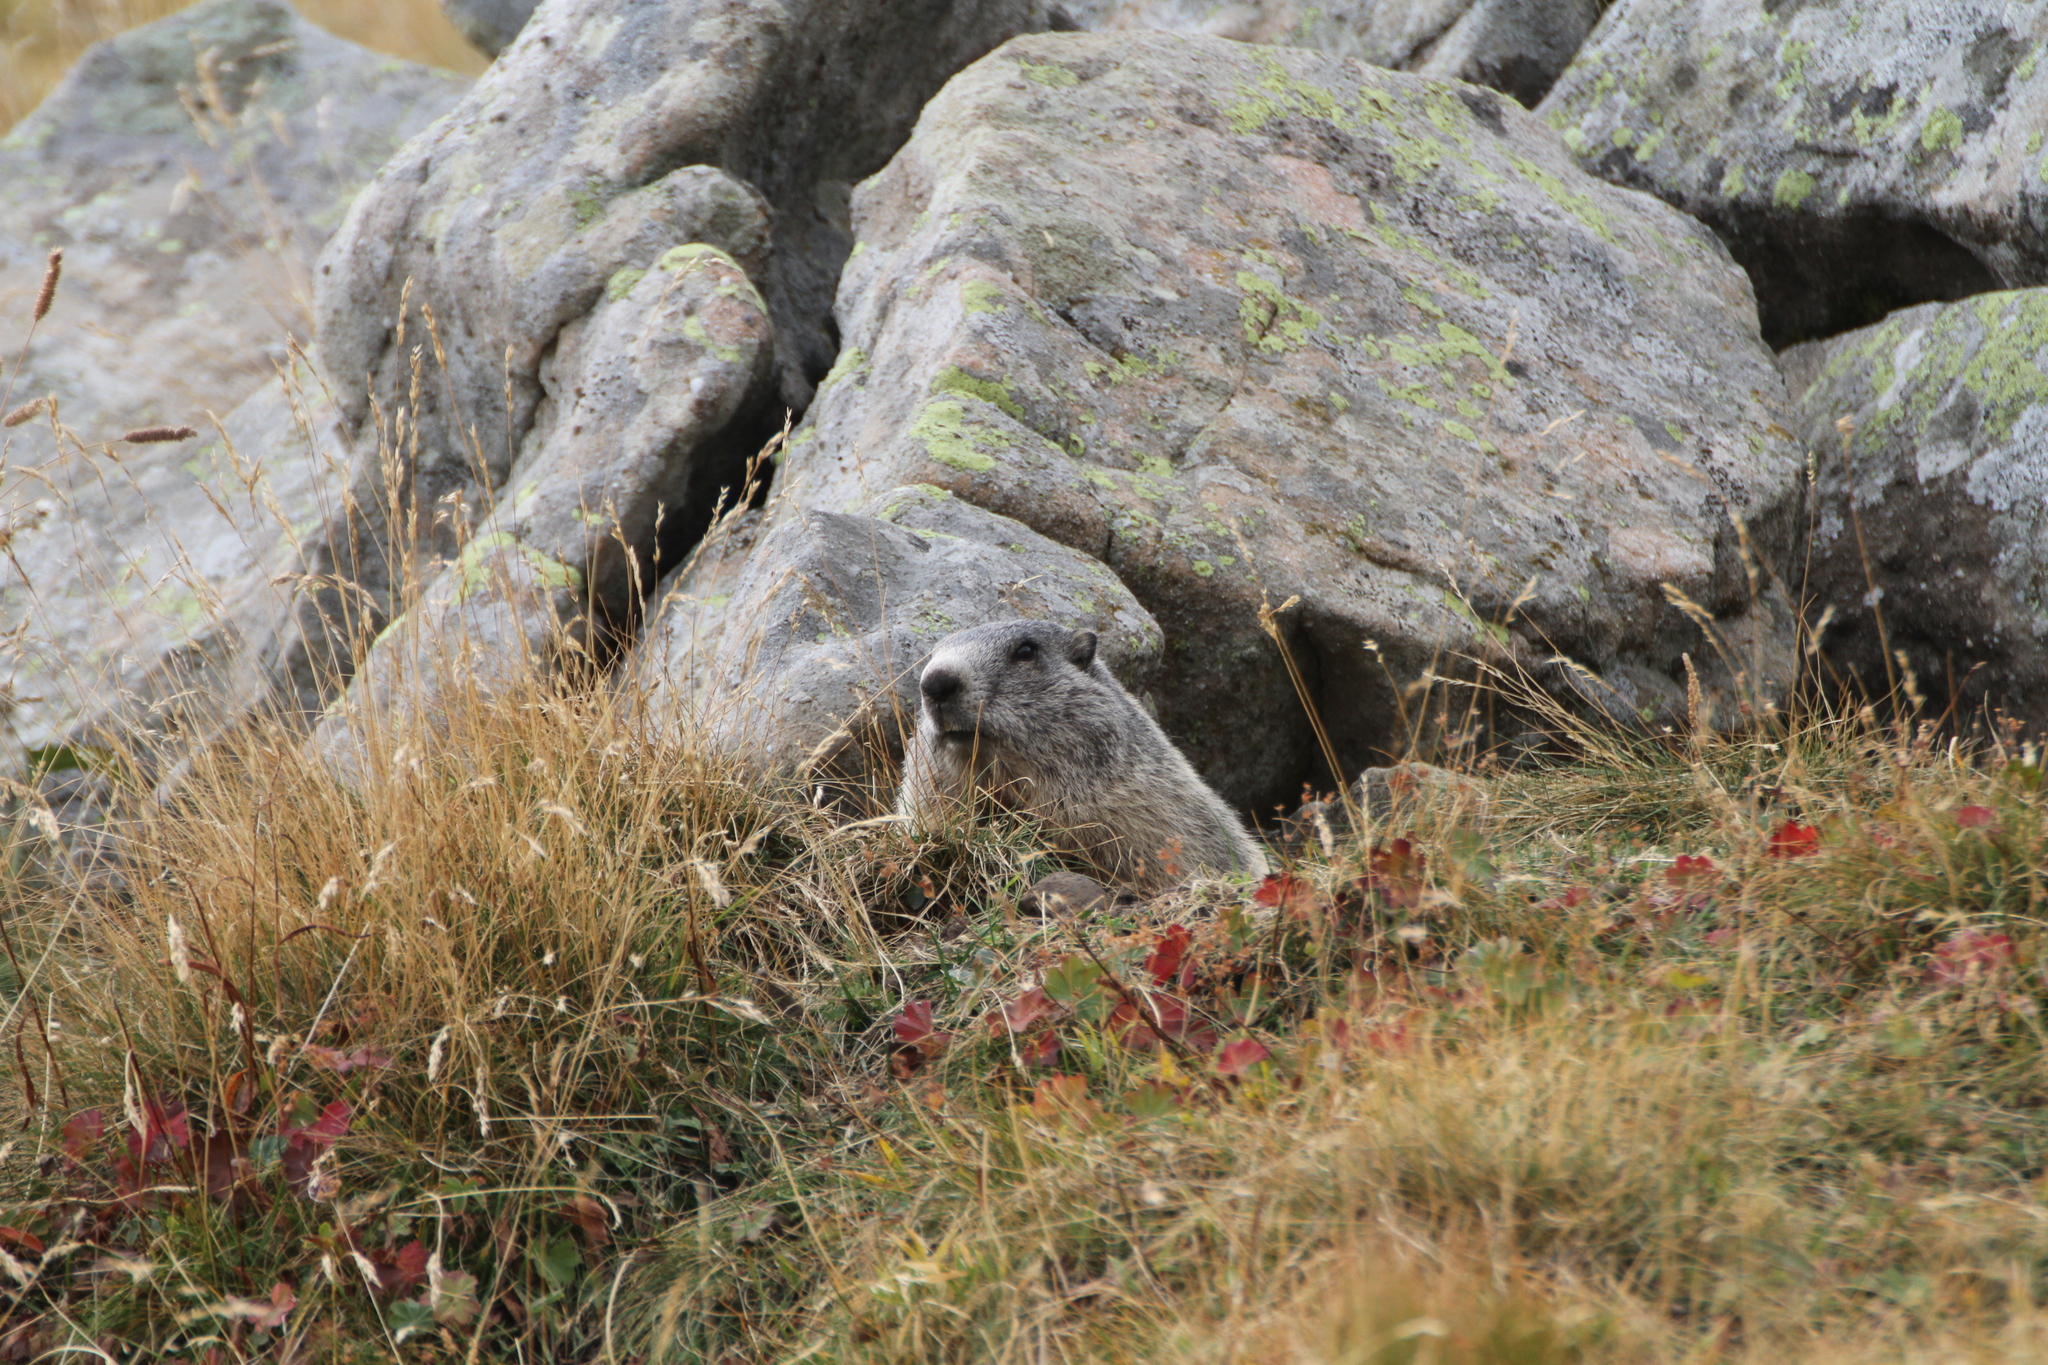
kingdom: Animalia
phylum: Chordata
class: Mammalia
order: Rodentia
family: Sciuridae
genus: Marmota
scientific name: Marmota marmota
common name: Alpine marmot
